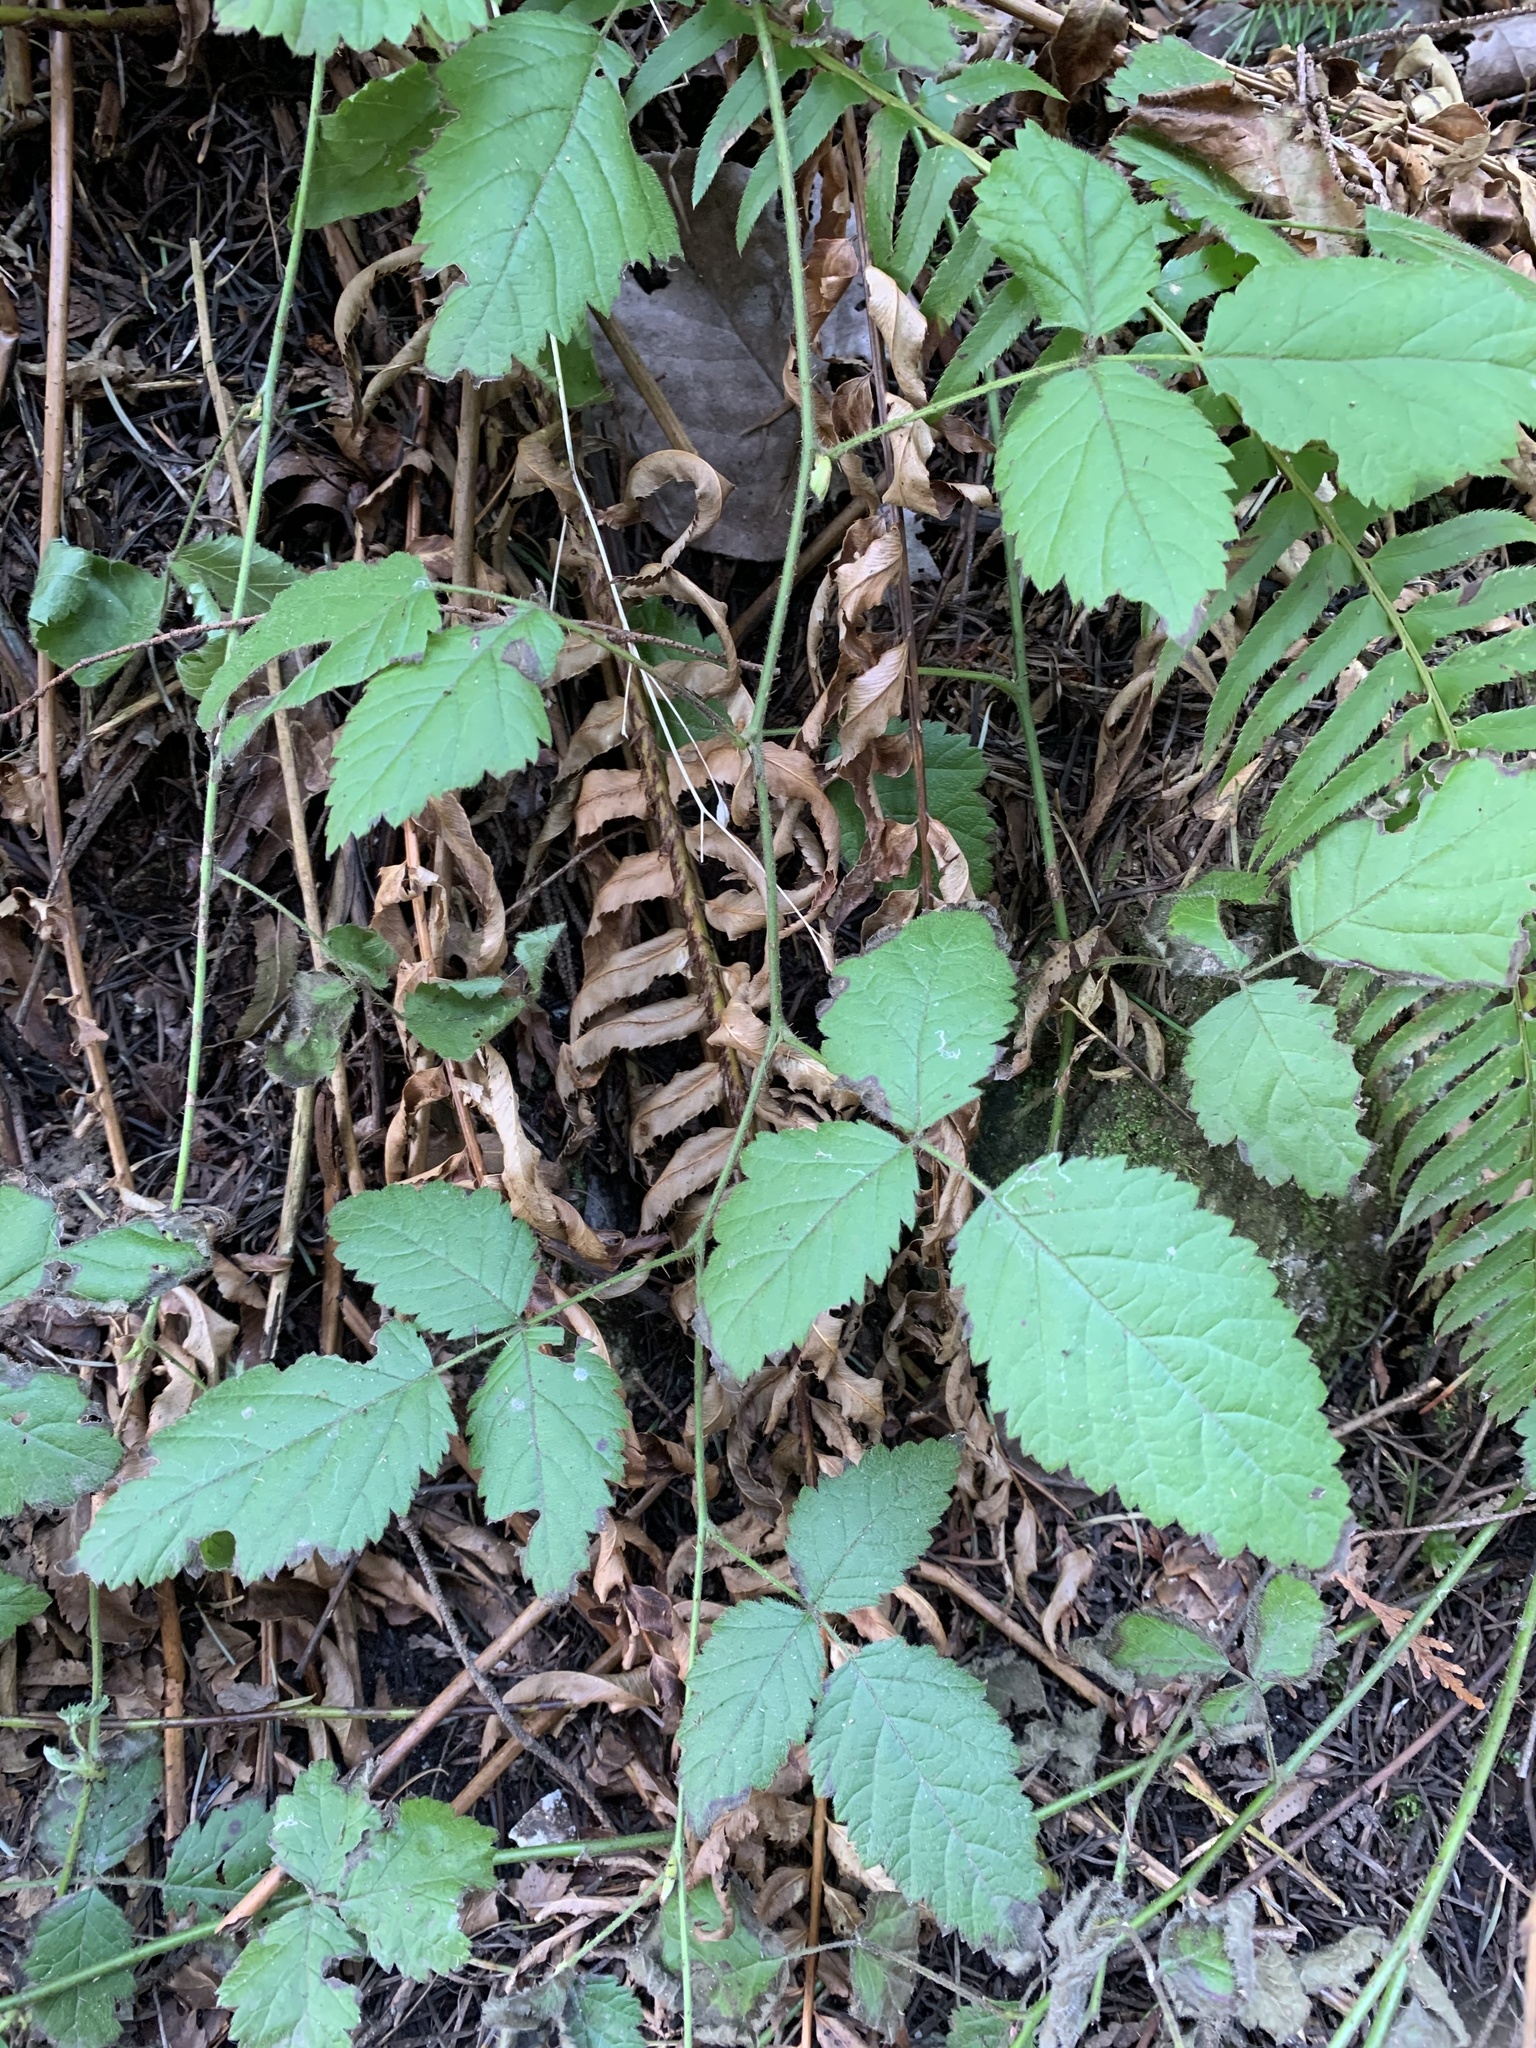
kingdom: Plantae
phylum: Tracheophyta
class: Magnoliopsida
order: Rosales
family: Rosaceae
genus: Rubus
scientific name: Rubus ursinus
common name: Pacific blackberry
